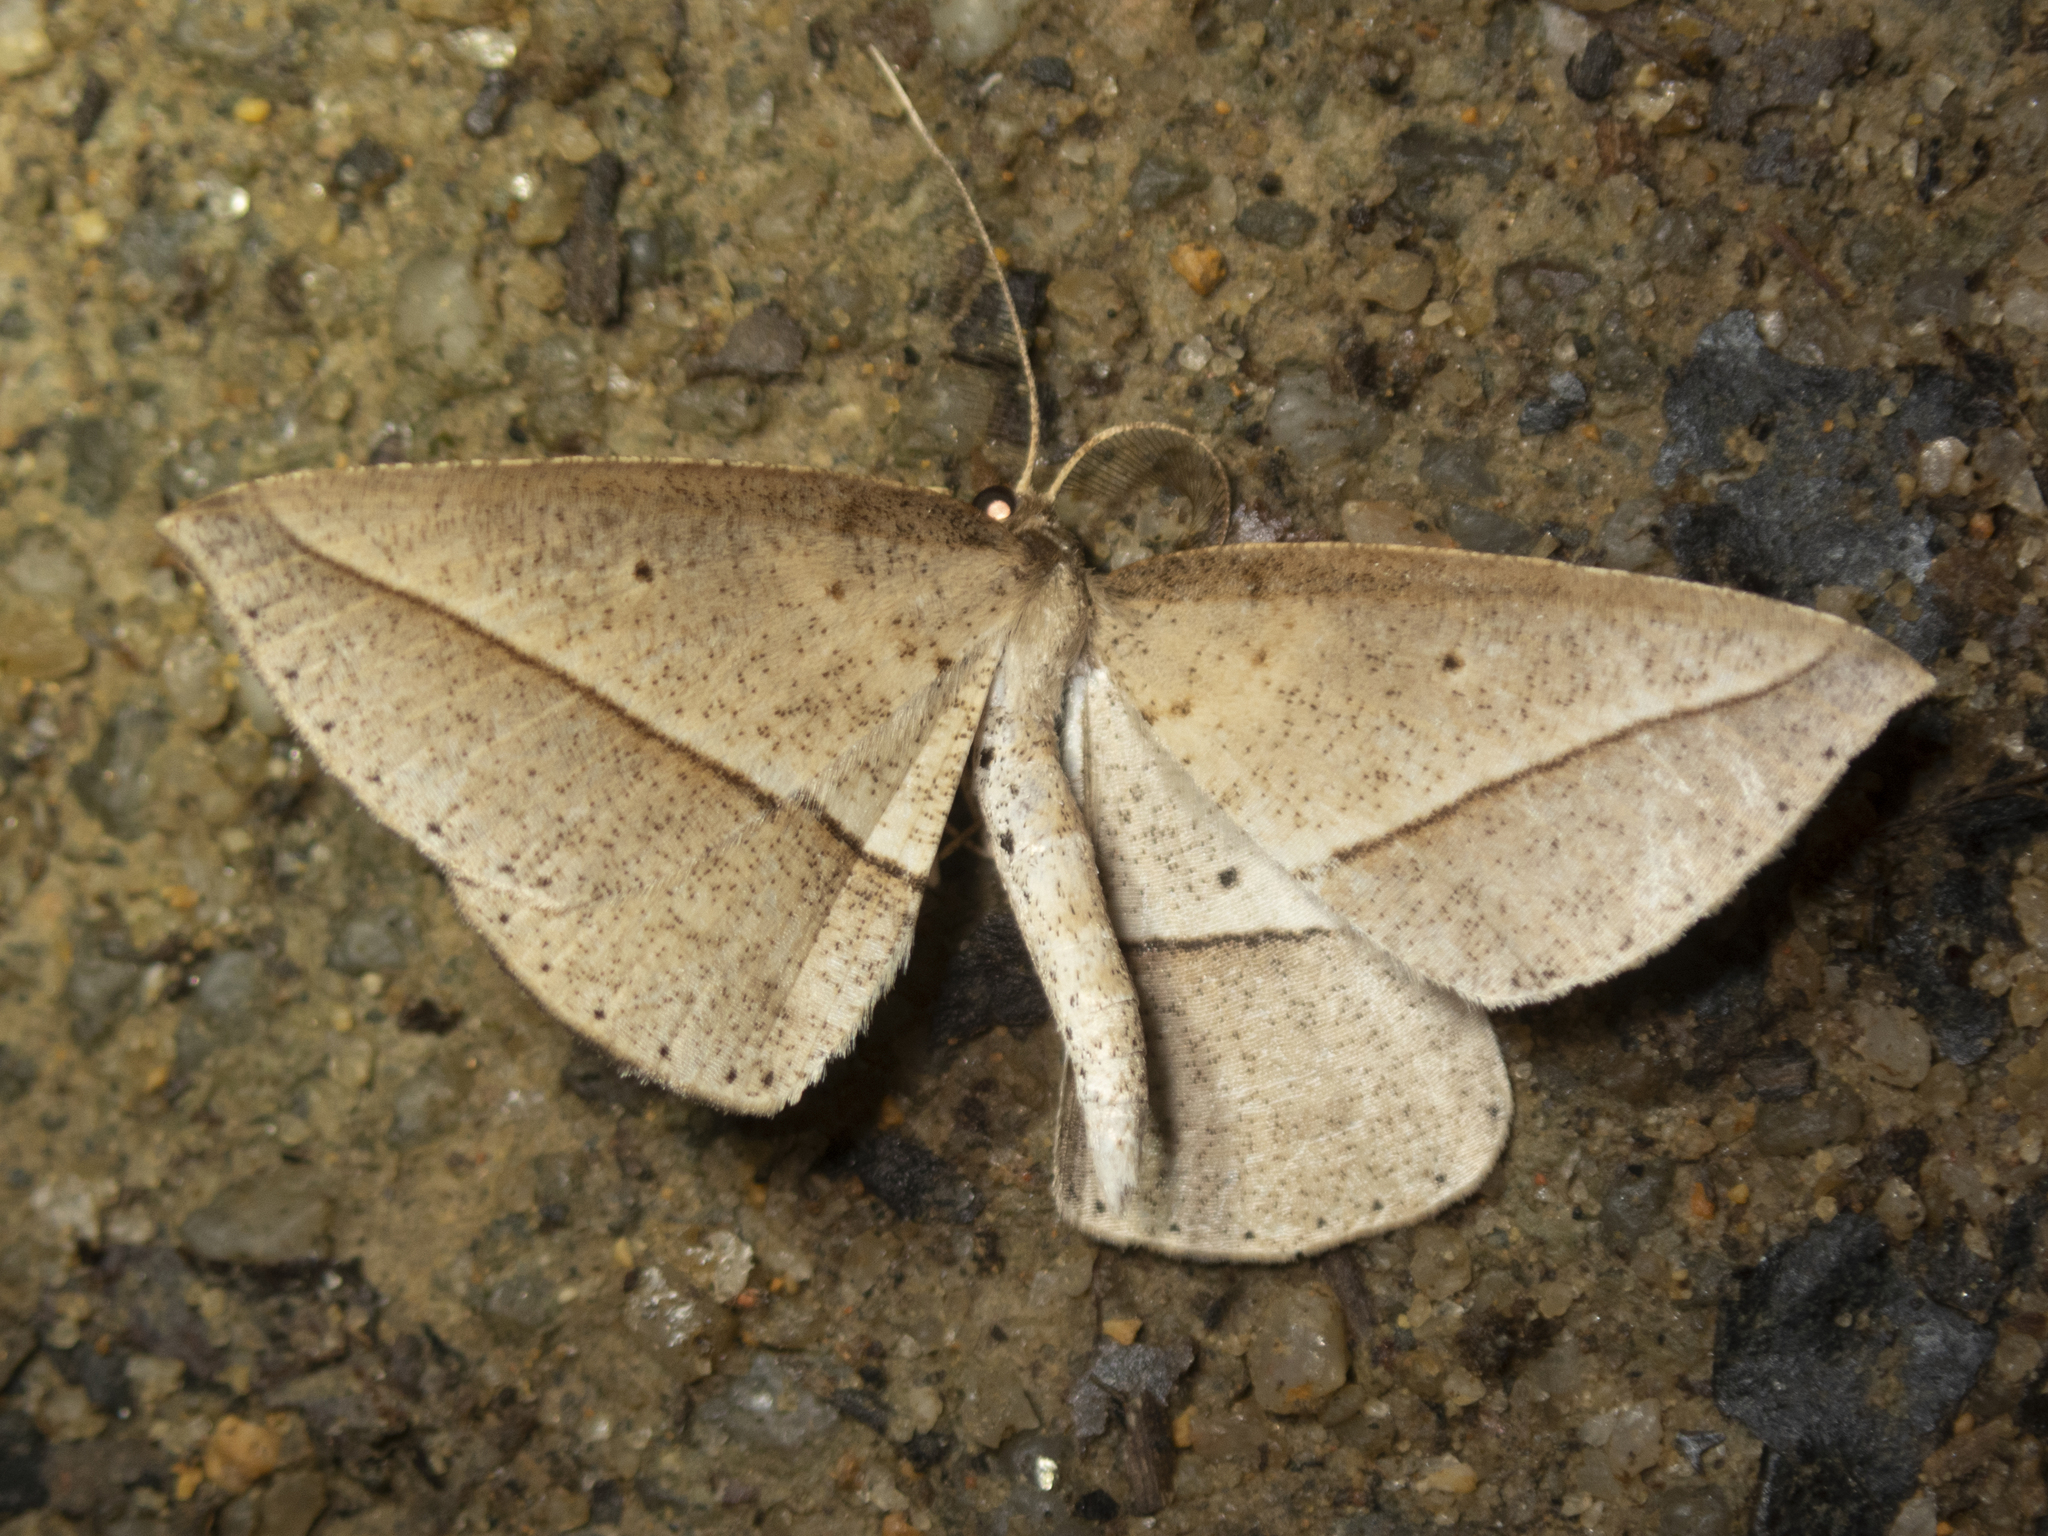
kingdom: Animalia
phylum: Arthropoda
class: Insecta
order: Lepidoptera
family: Geometridae
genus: Heteralex
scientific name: Heteralex unilinea
